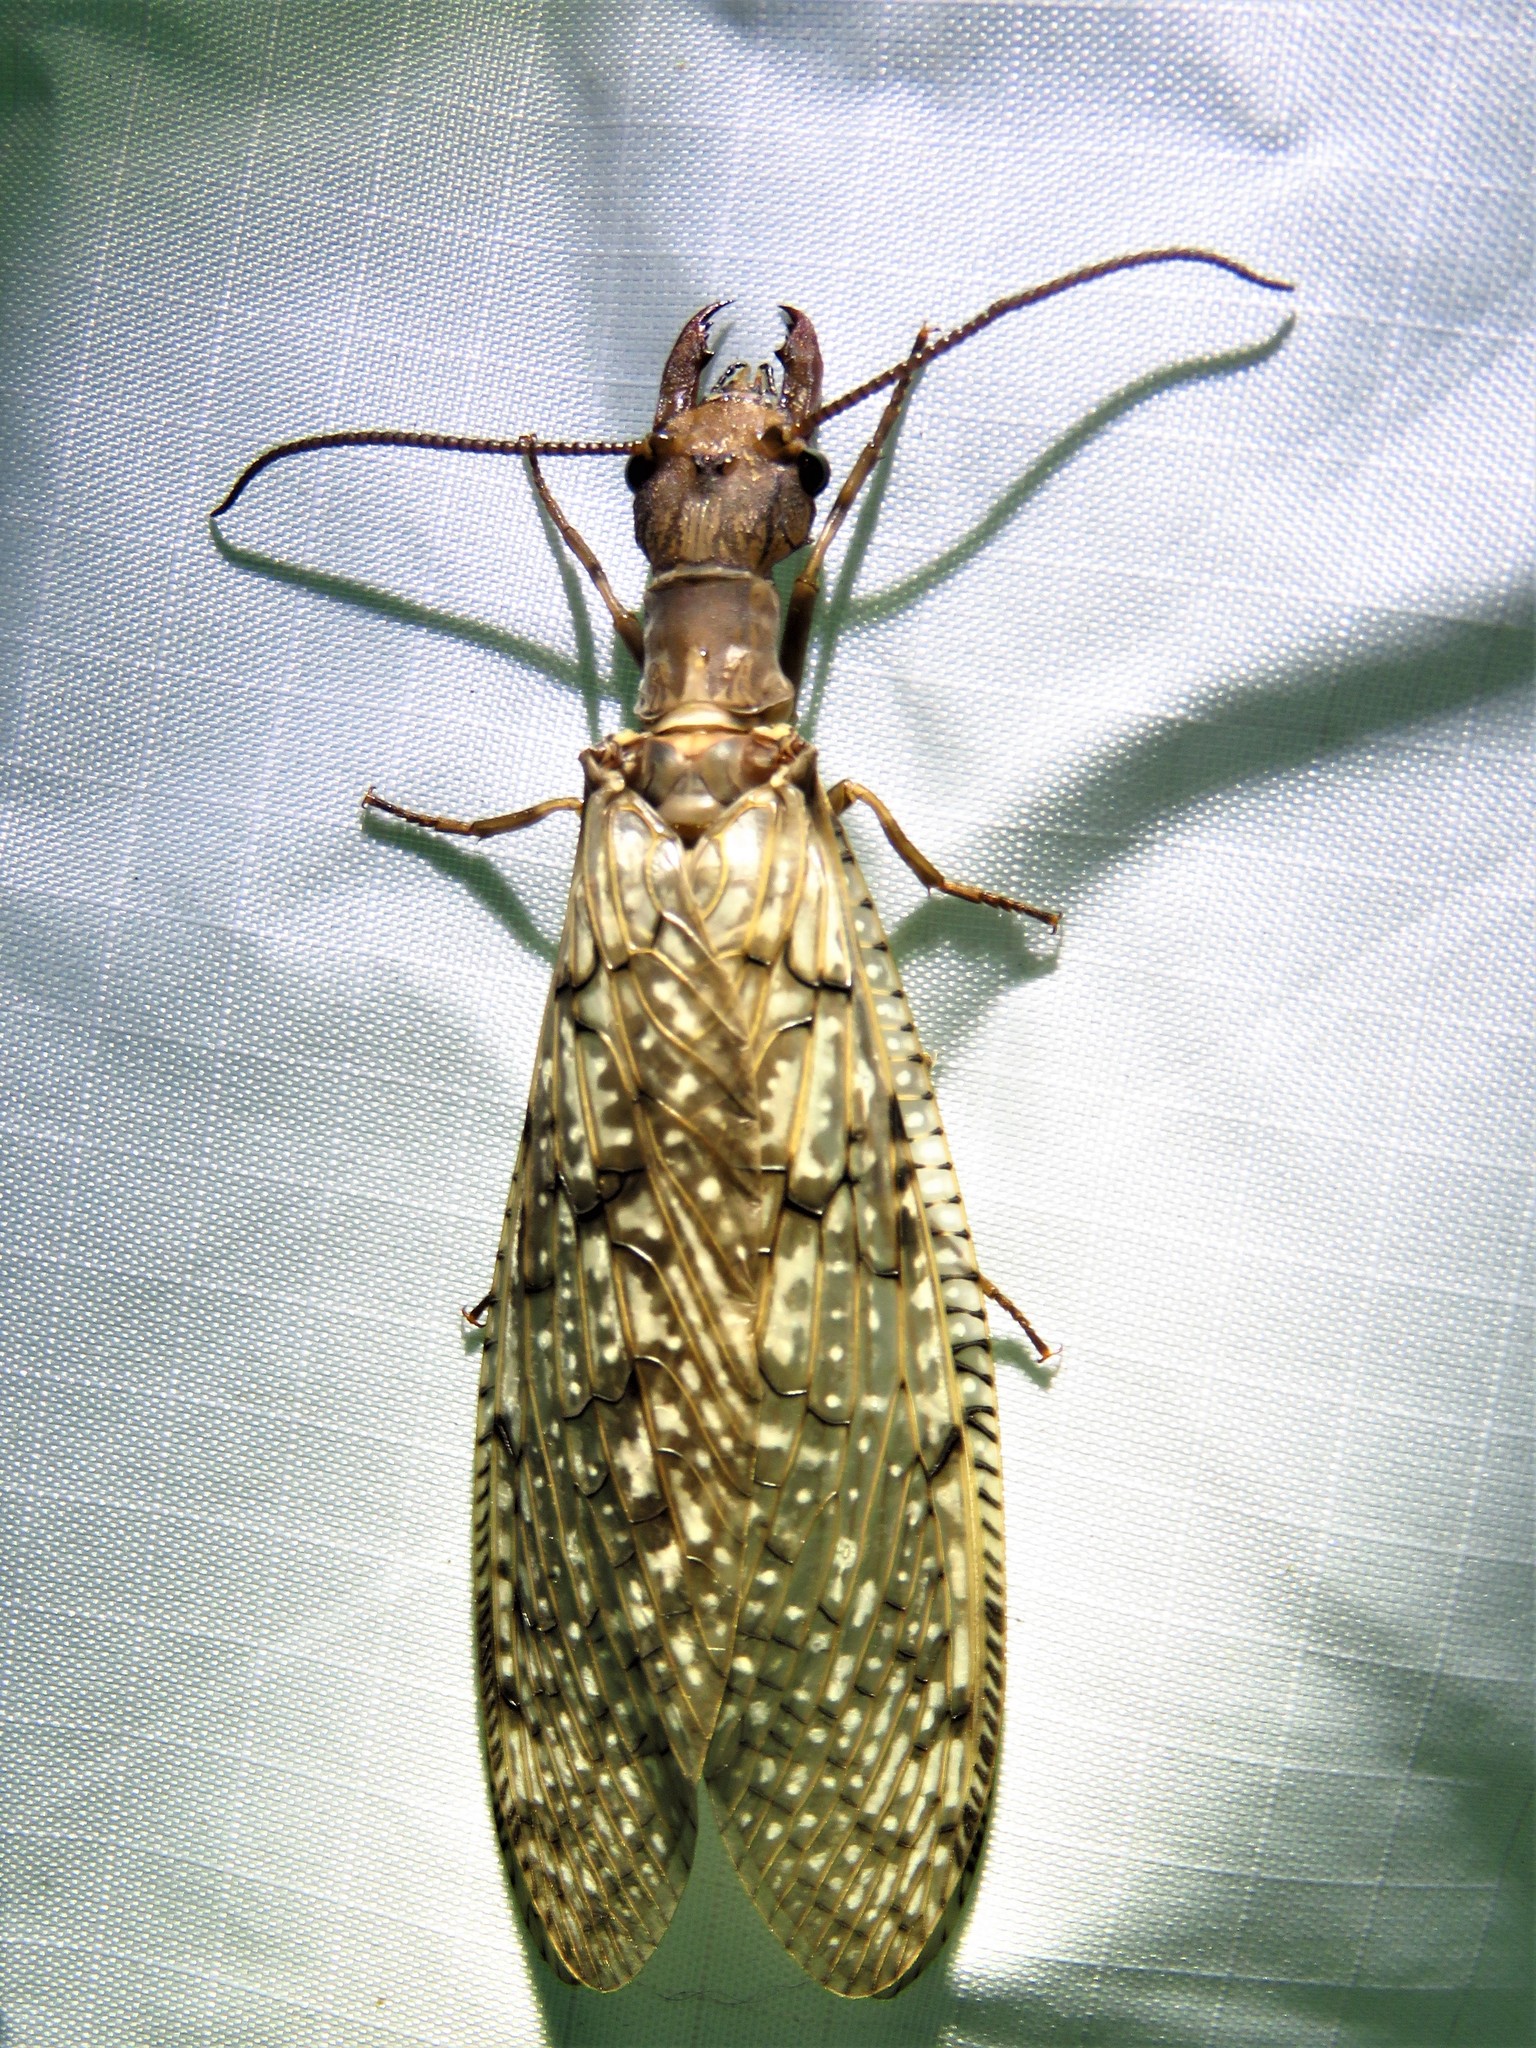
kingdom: Animalia
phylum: Arthropoda
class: Insecta
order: Megaloptera
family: Corydalidae
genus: Corydalus
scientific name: Corydalus cornutus
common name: Dobsonfly
